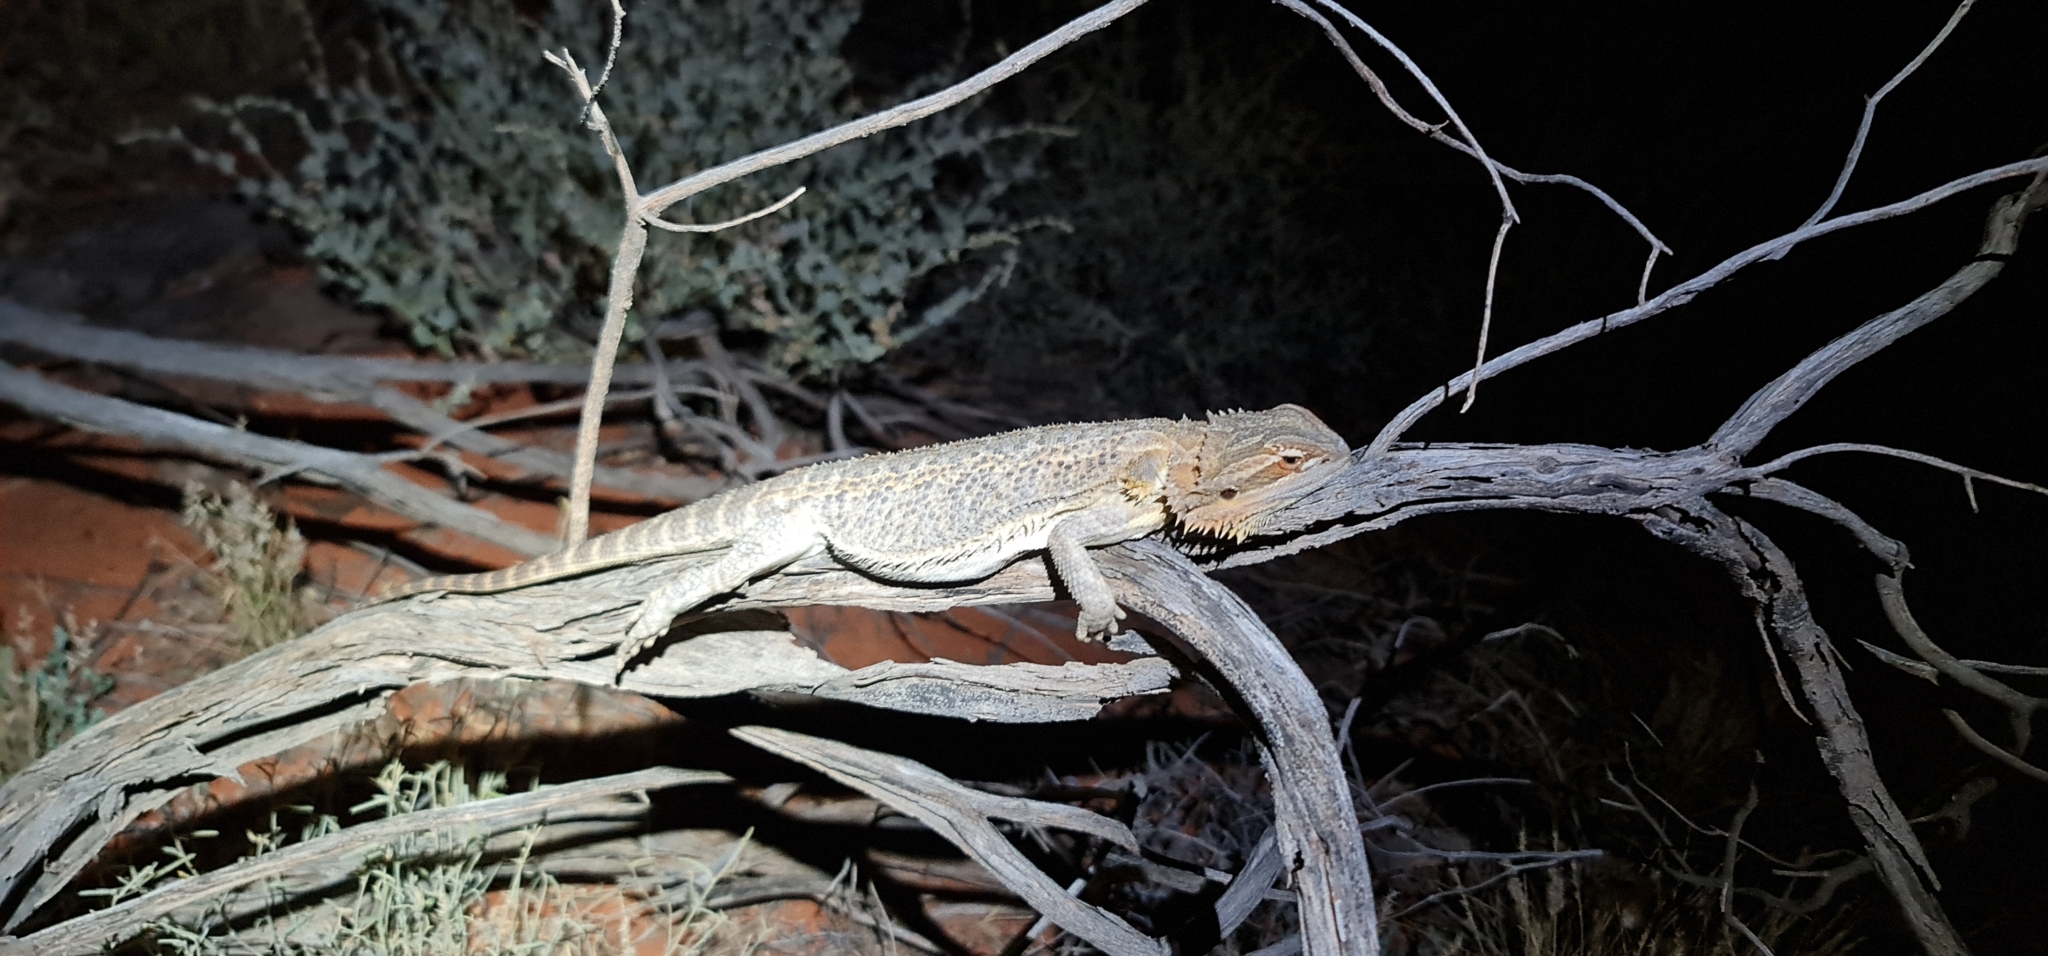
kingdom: Animalia
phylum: Chordata
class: Squamata
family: Agamidae
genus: Pogona
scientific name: Pogona vitticeps
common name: Central bearded dragon
